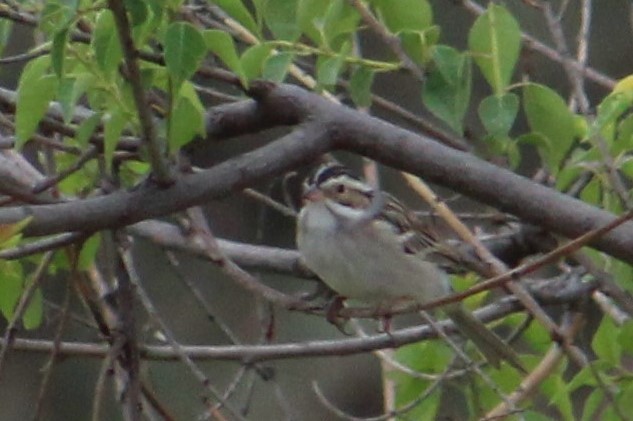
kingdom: Animalia
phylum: Chordata
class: Aves
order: Passeriformes
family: Passerellidae
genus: Spizella
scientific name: Spizella pallida
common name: Clay-colored sparrow
